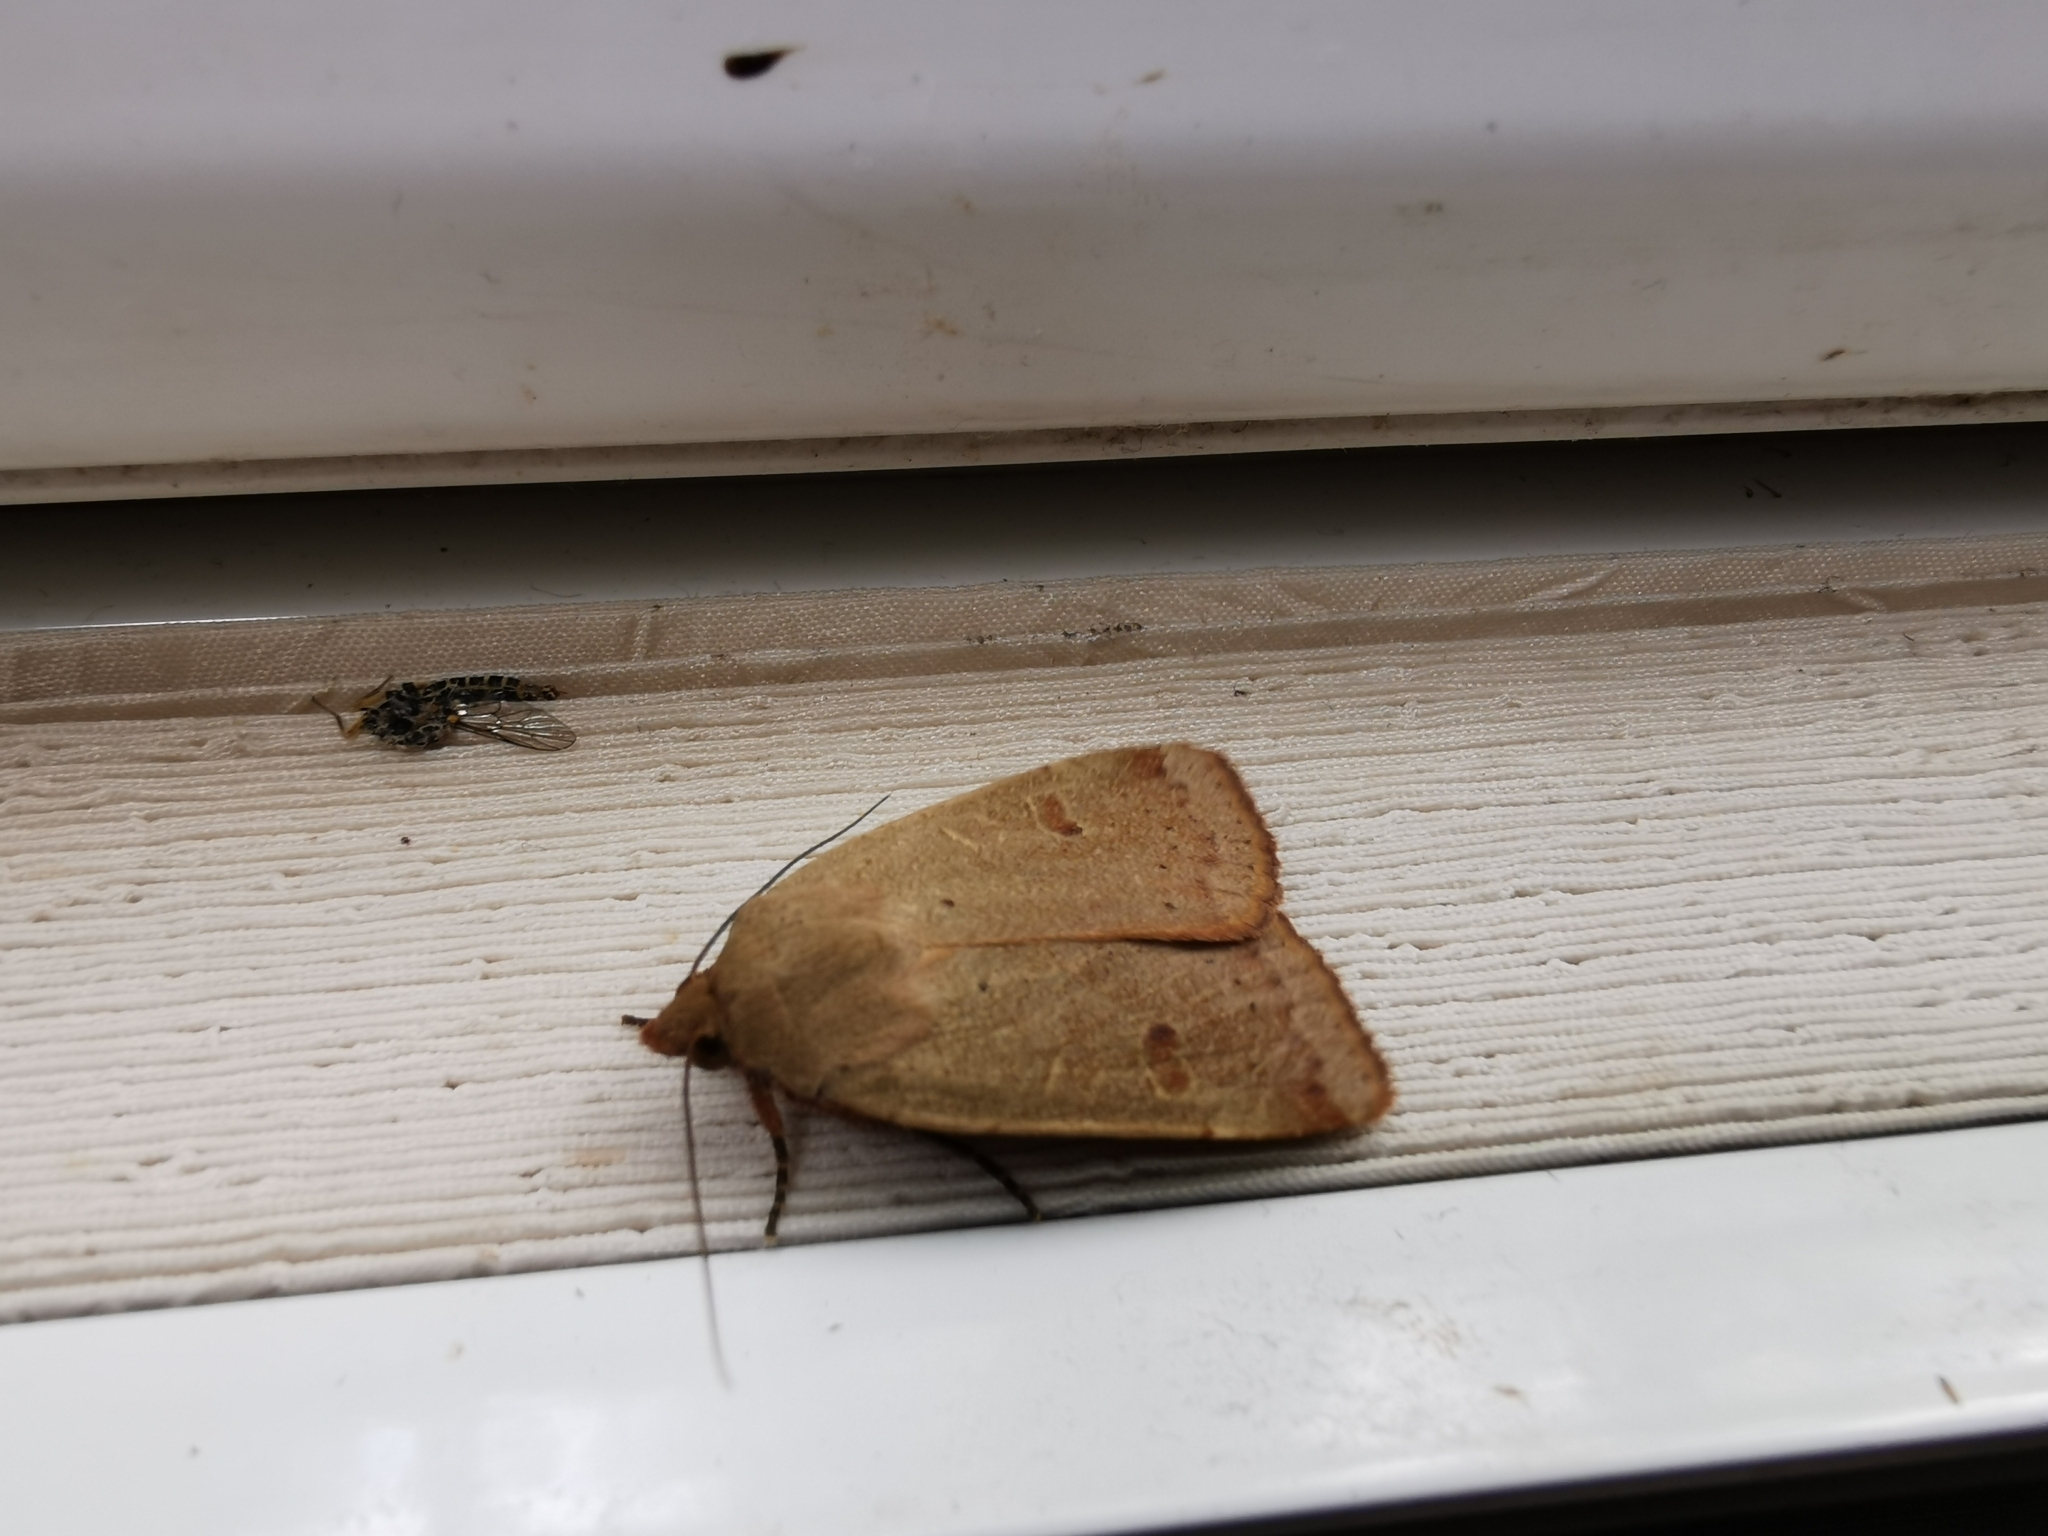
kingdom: Animalia
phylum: Arthropoda
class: Insecta
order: Lepidoptera
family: Noctuidae
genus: Noctua
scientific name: Noctua comes
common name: Lesser yellow underwing
